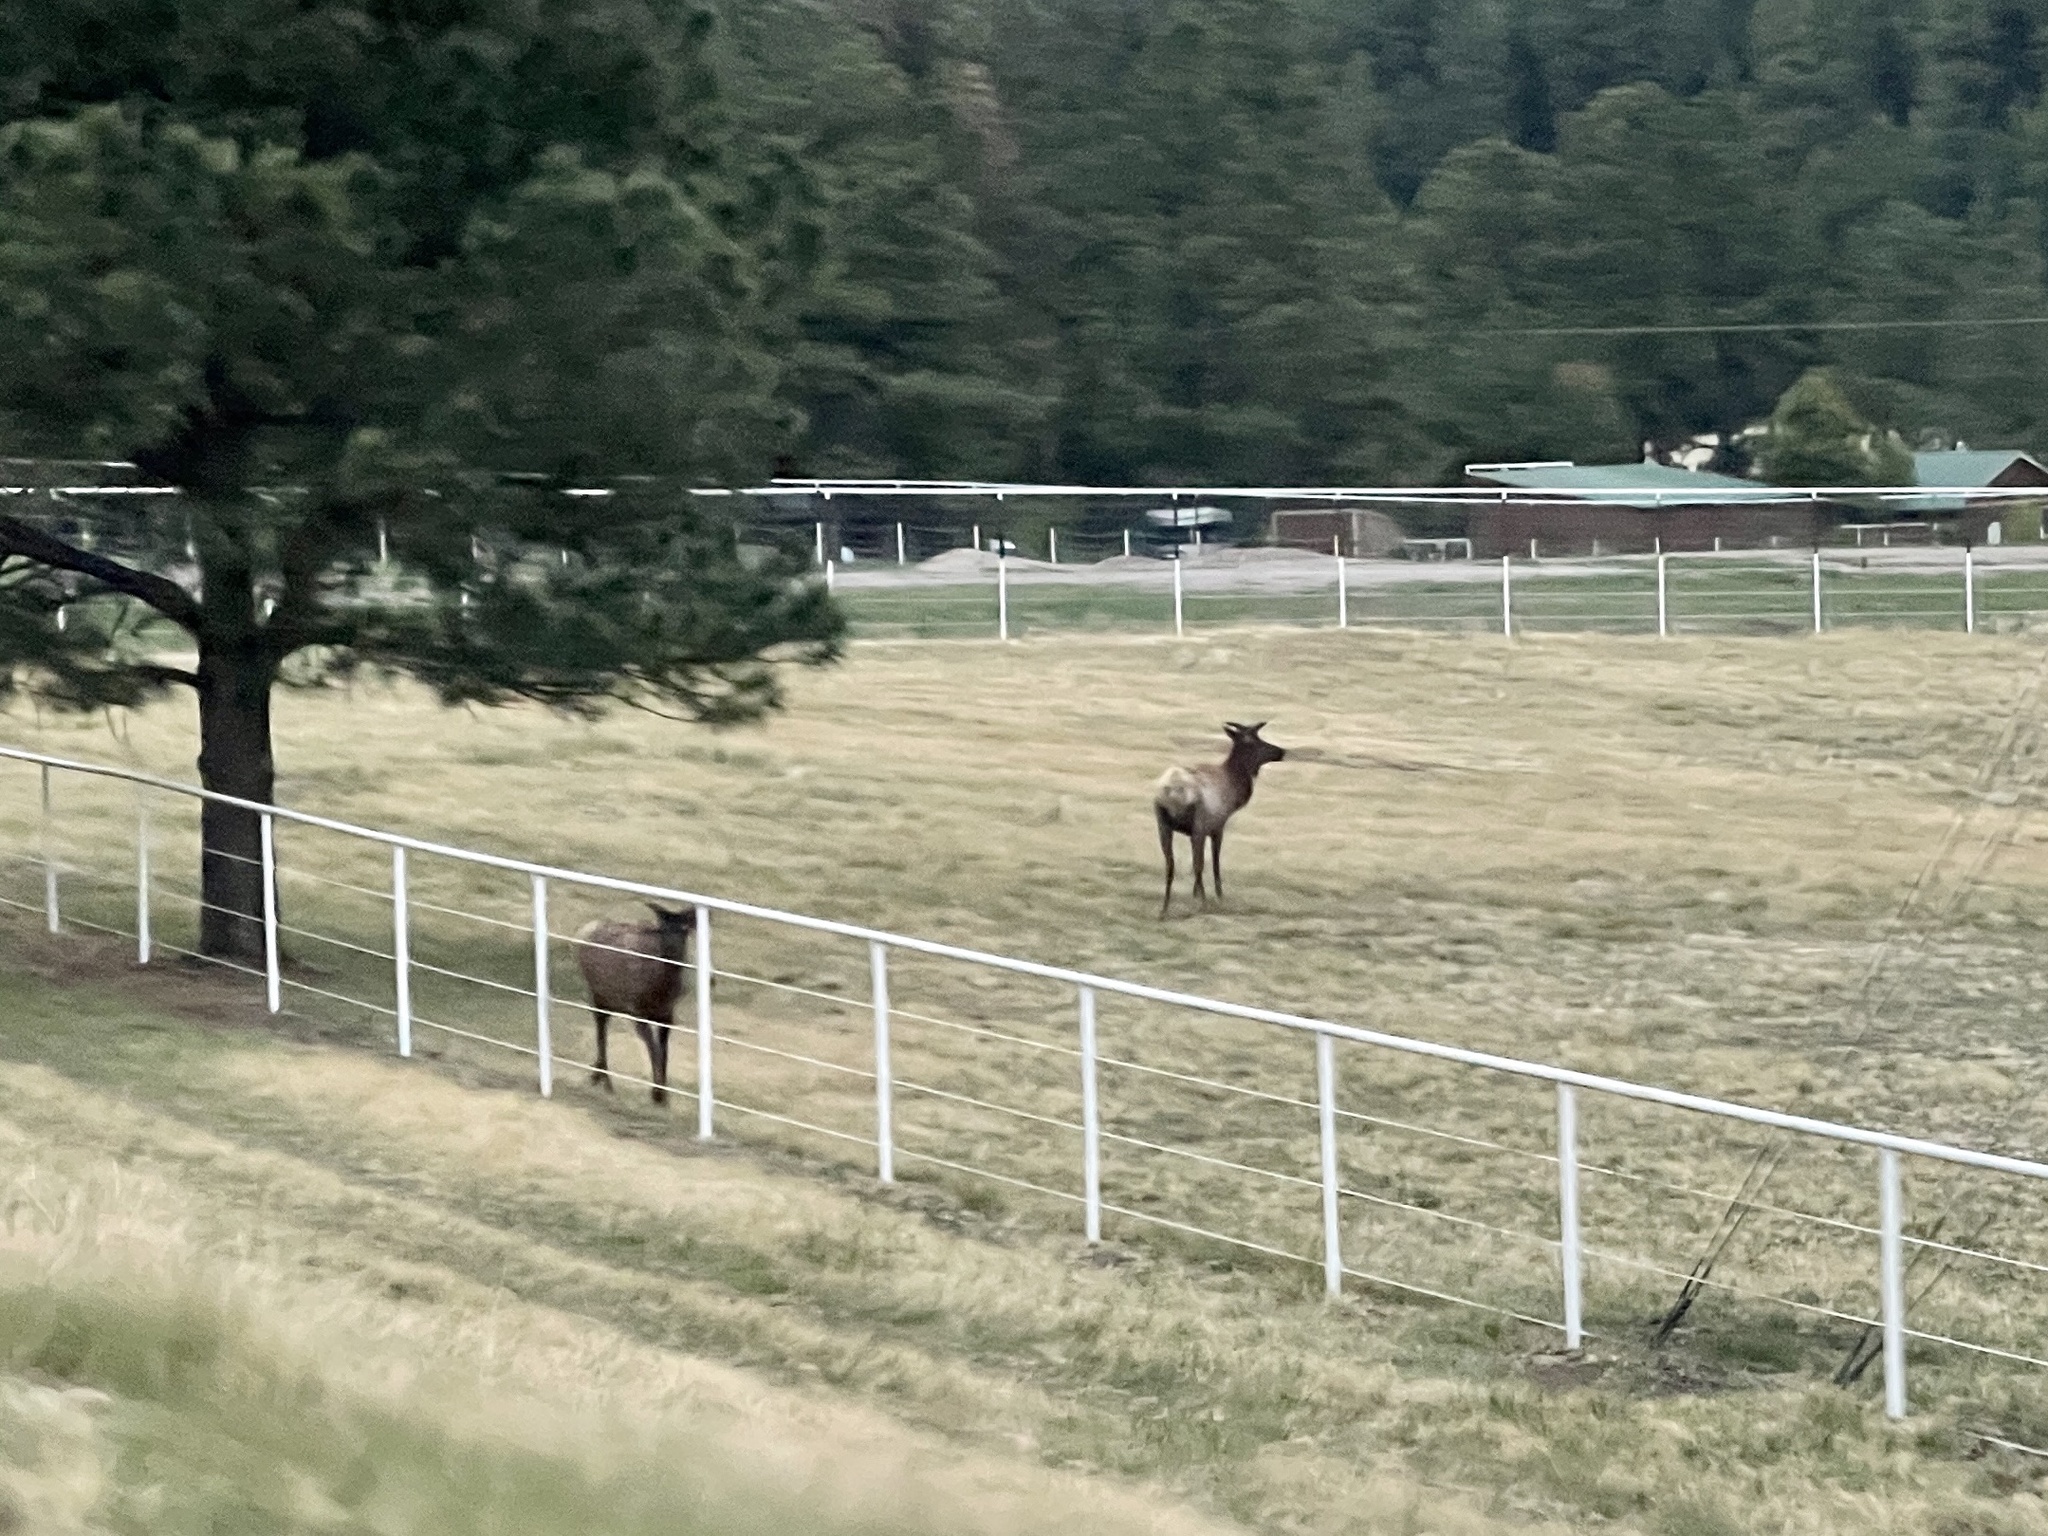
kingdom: Animalia
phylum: Chordata
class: Mammalia
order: Artiodactyla
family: Cervidae
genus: Cervus
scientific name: Cervus elaphus
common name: Red deer
